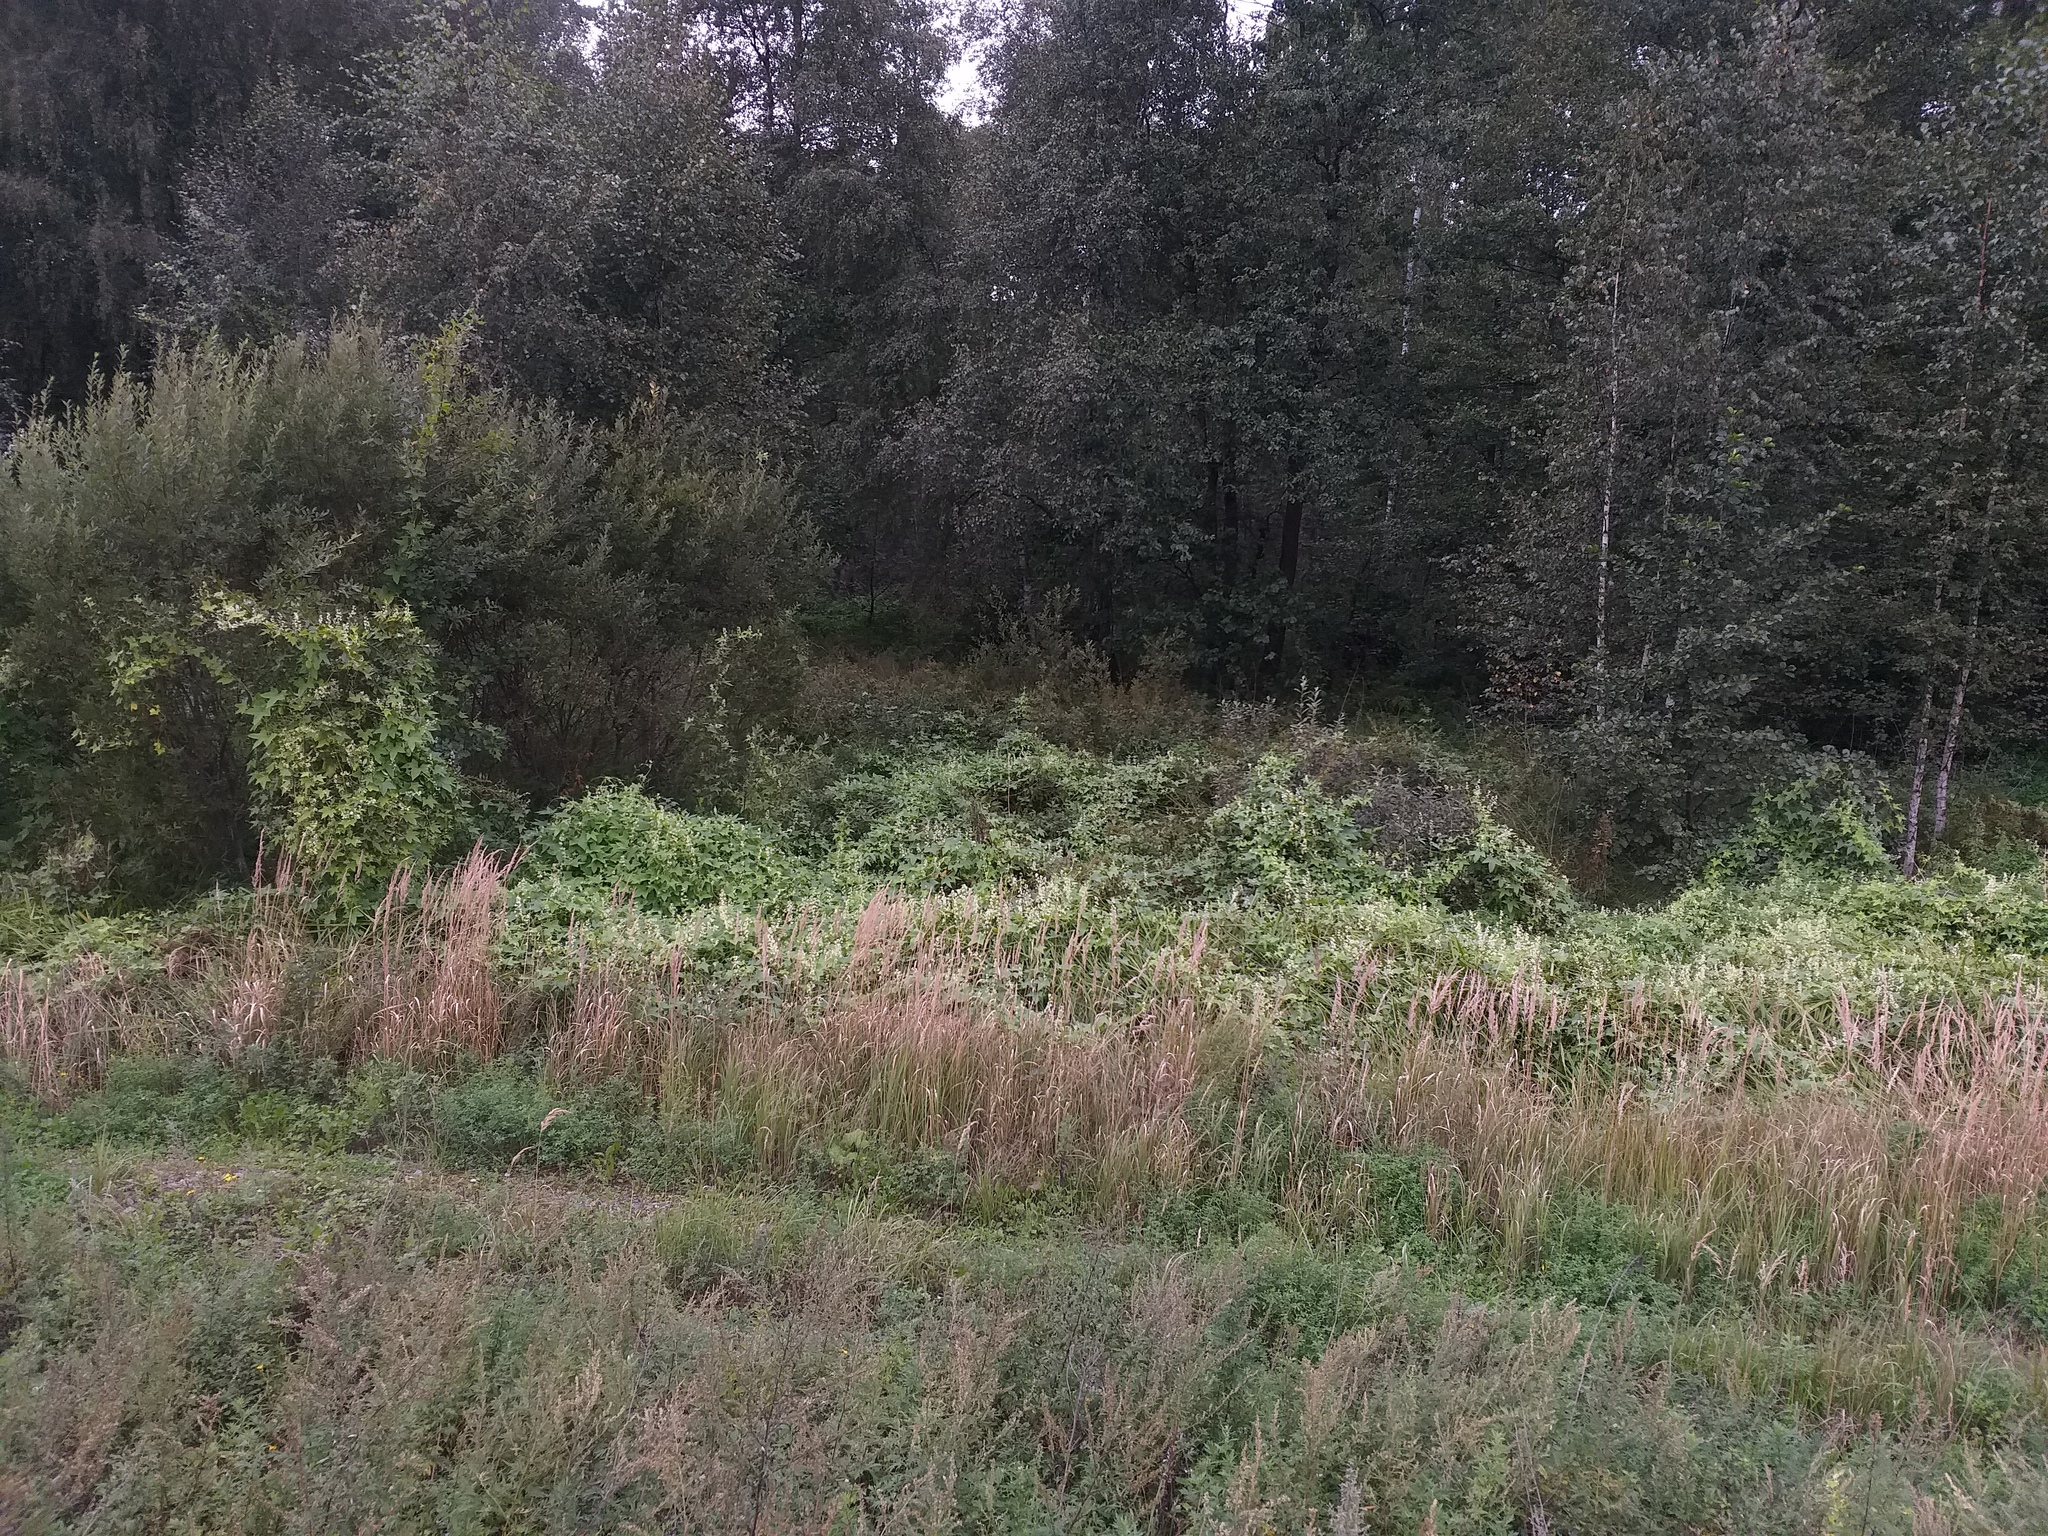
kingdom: Plantae
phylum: Tracheophyta
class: Magnoliopsida
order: Cucurbitales
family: Cucurbitaceae
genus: Echinocystis
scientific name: Echinocystis lobata
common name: Wild cucumber
